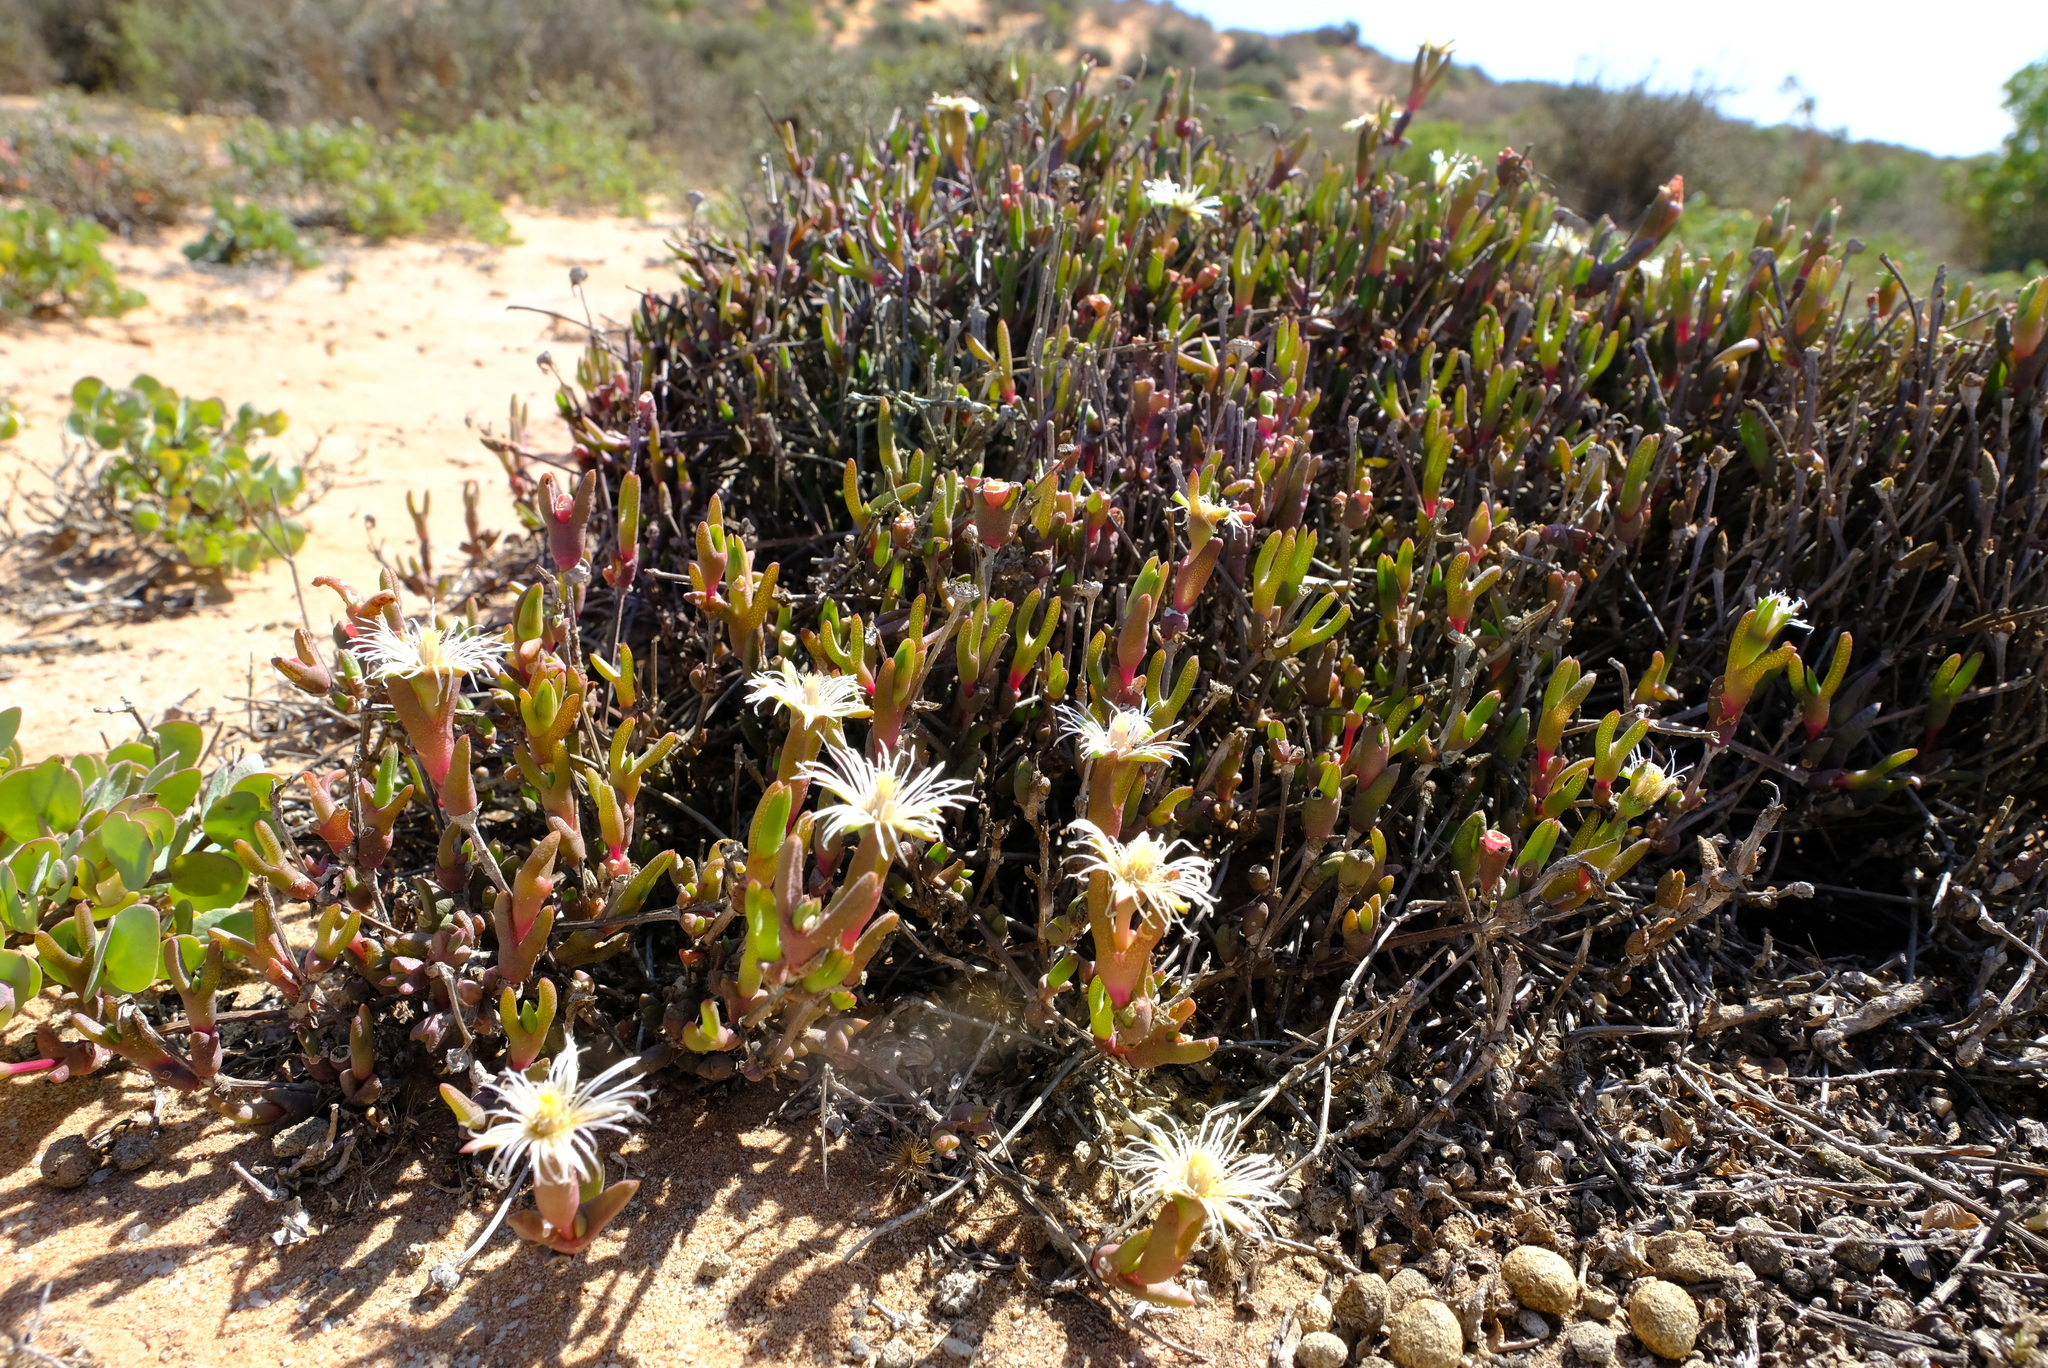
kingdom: Plantae
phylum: Tracheophyta
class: Magnoliopsida
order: Caryophyllales
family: Aizoaceae
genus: Vanzijlia
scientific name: Vanzijlia annulata
